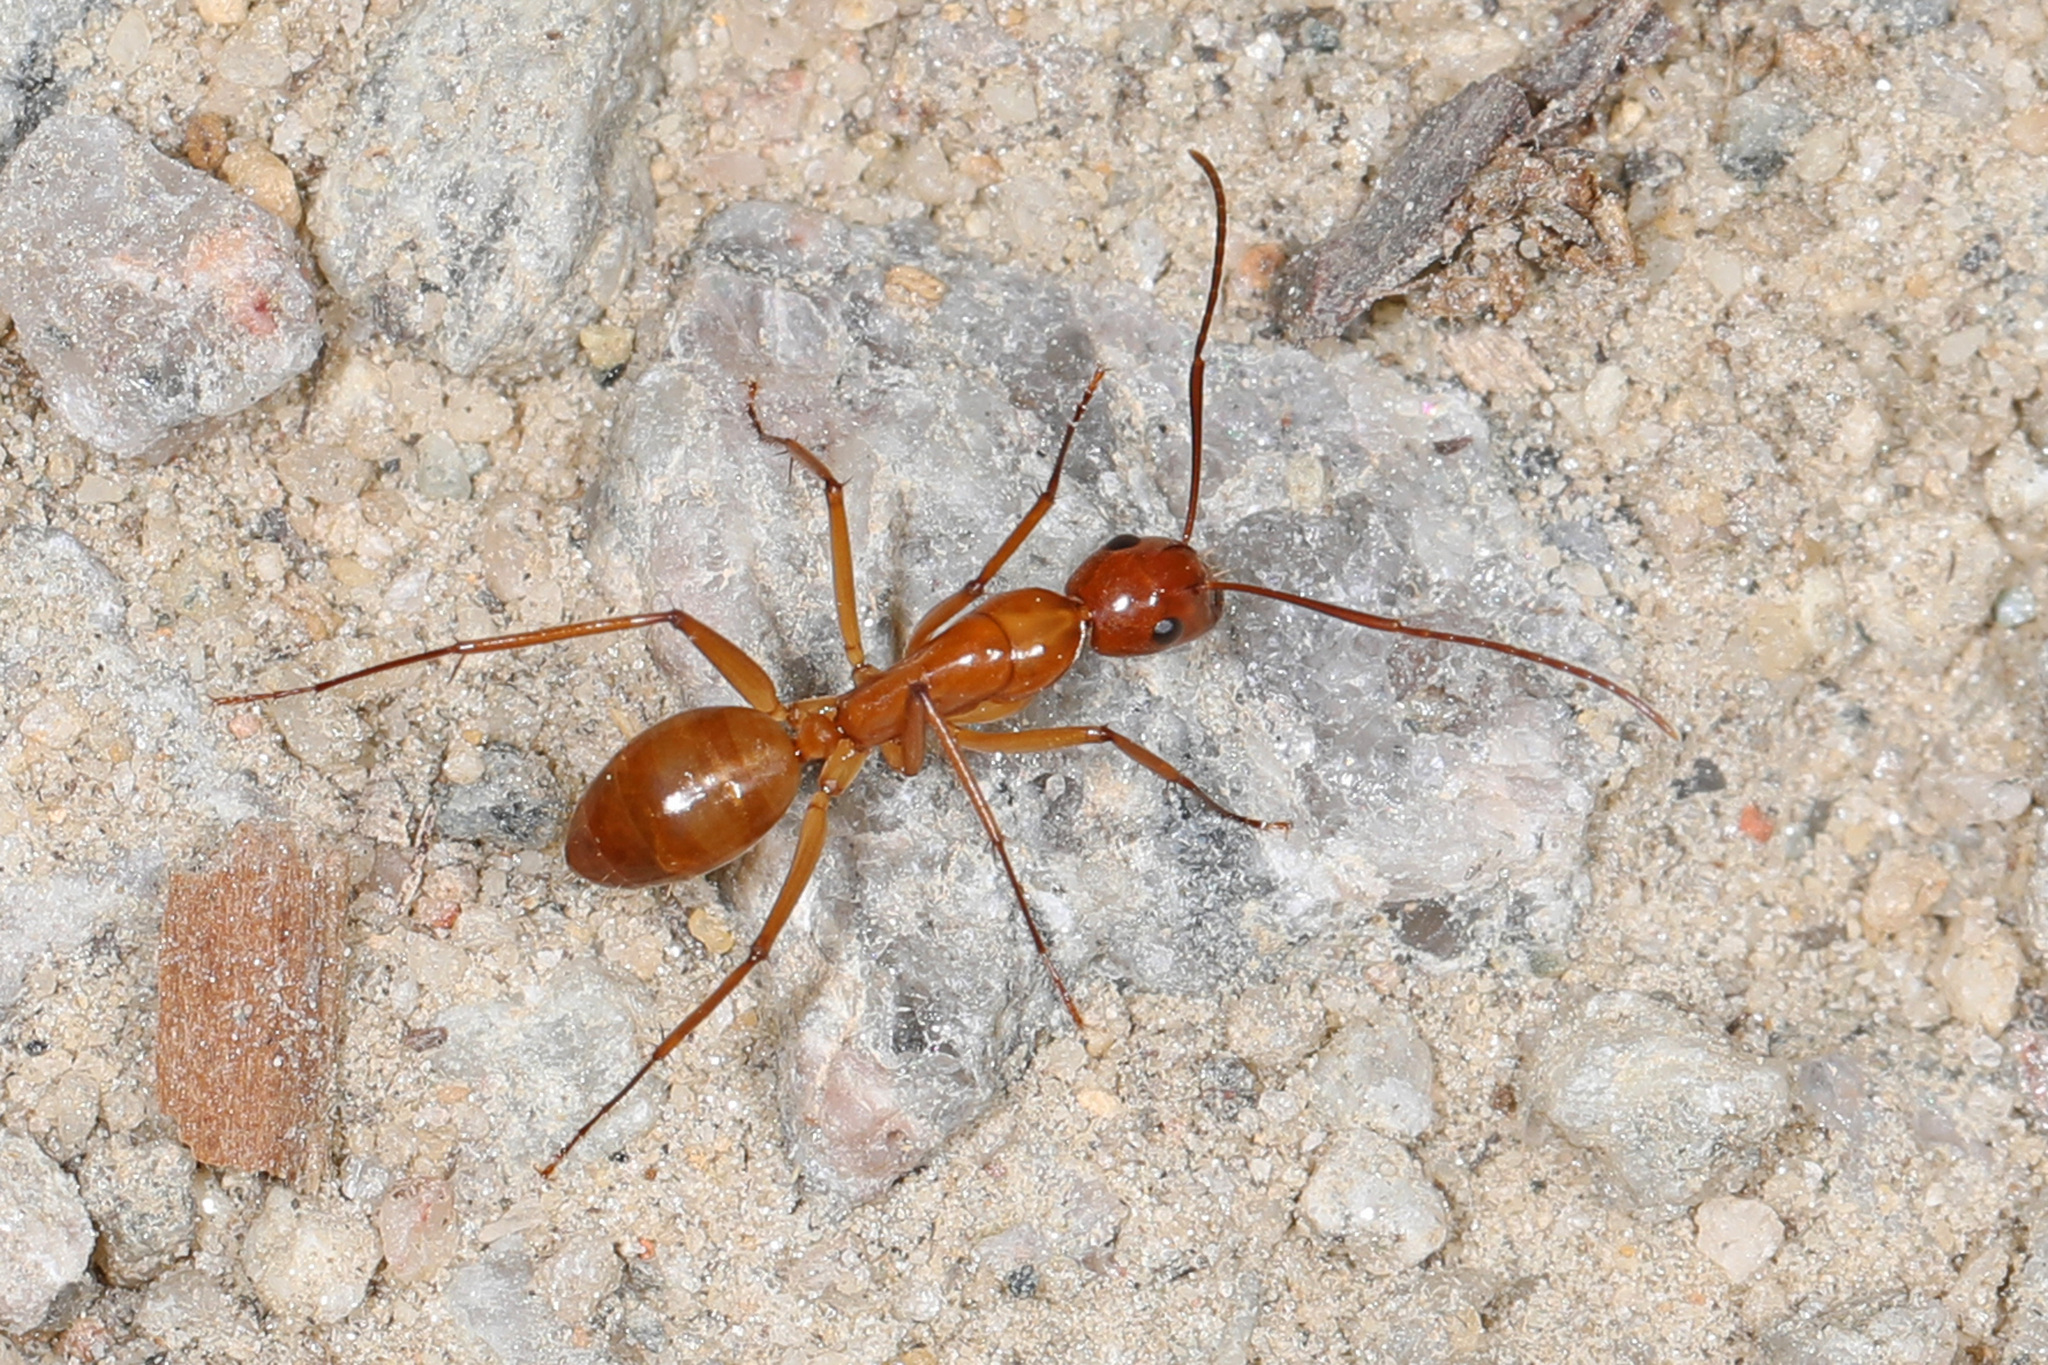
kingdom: Animalia
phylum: Arthropoda
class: Insecta
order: Hymenoptera
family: Formicidae
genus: Camponotus
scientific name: Camponotus castaneus
